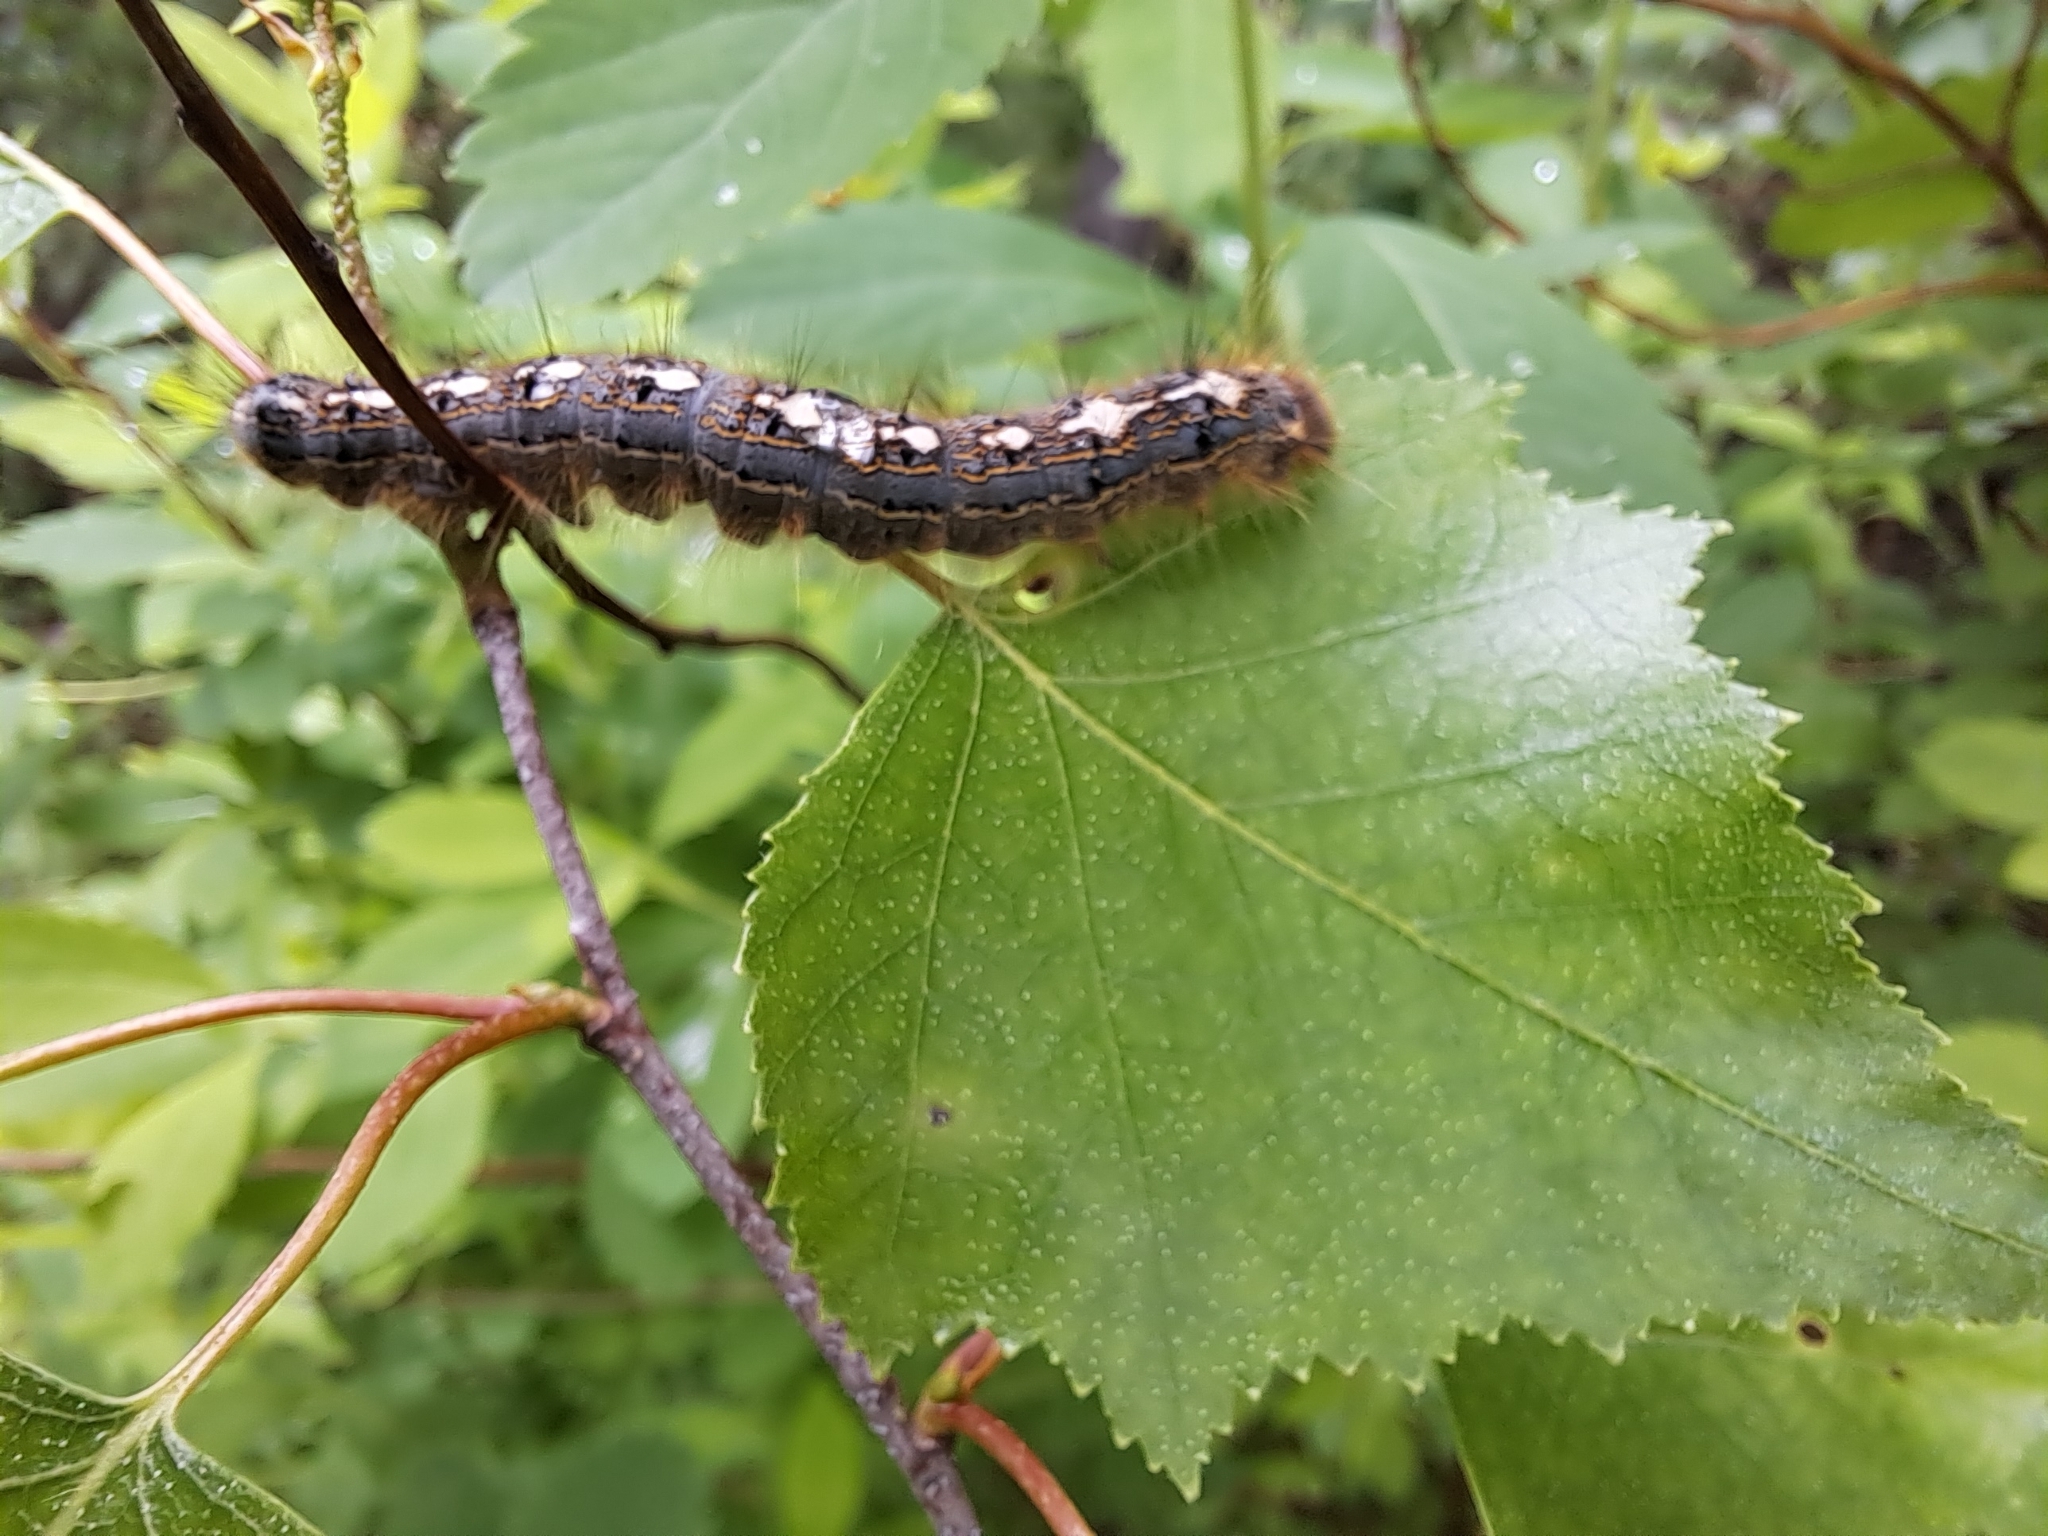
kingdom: Animalia
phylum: Arthropoda
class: Insecta
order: Lepidoptera
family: Lasiocampidae
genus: Malacosoma
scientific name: Malacosoma disstria
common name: Forest tent caterpillar
